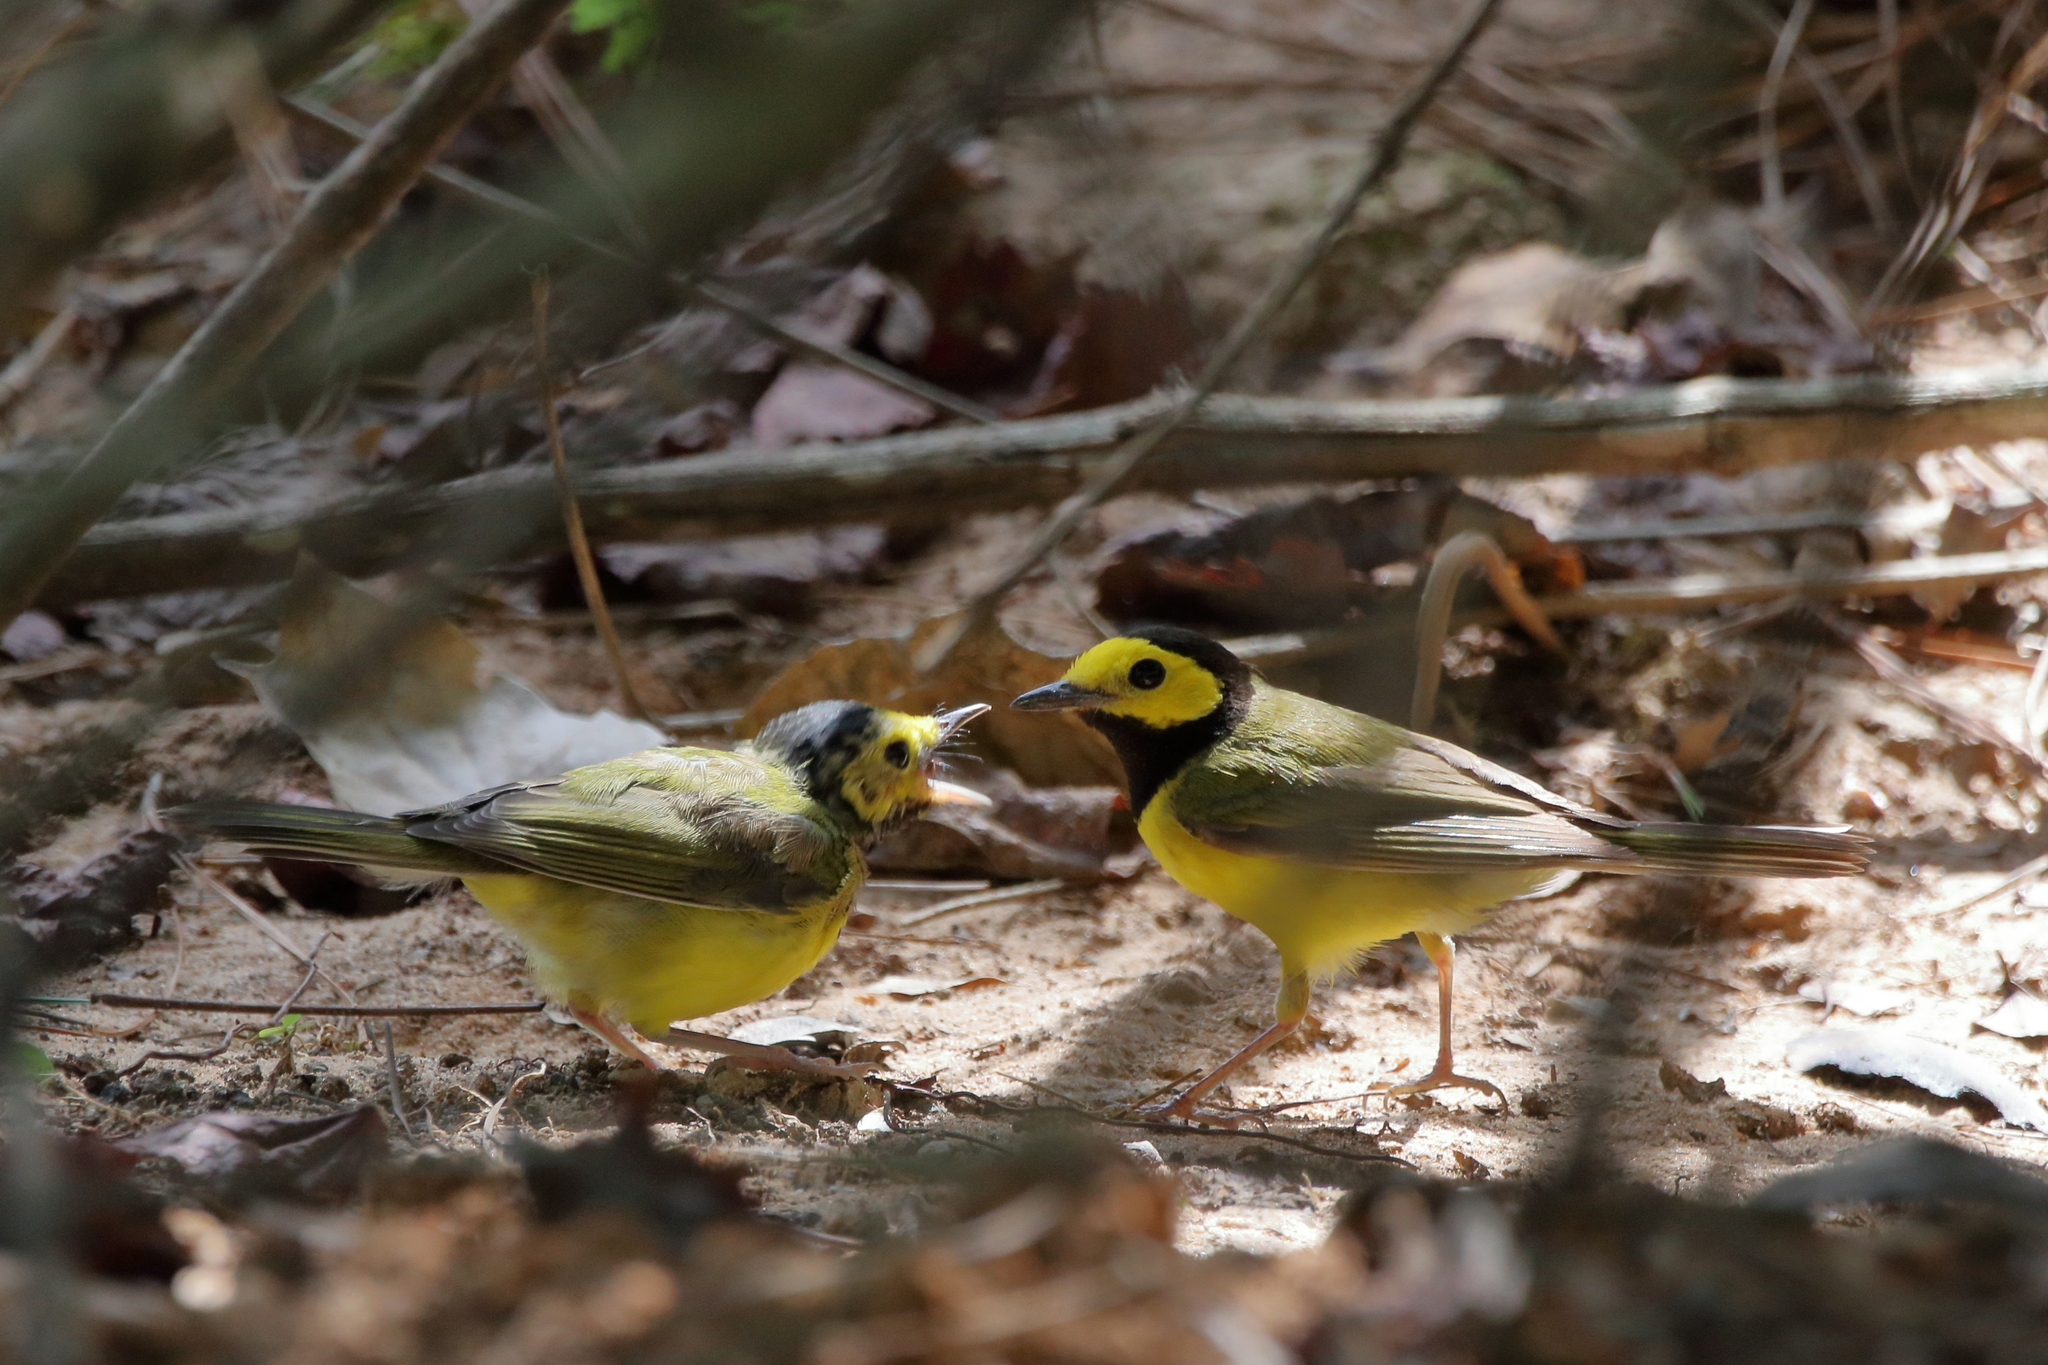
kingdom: Animalia
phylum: Chordata
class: Aves
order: Passeriformes
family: Parulidae
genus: Setophaga
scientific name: Setophaga citrina
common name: Hooded warbler
